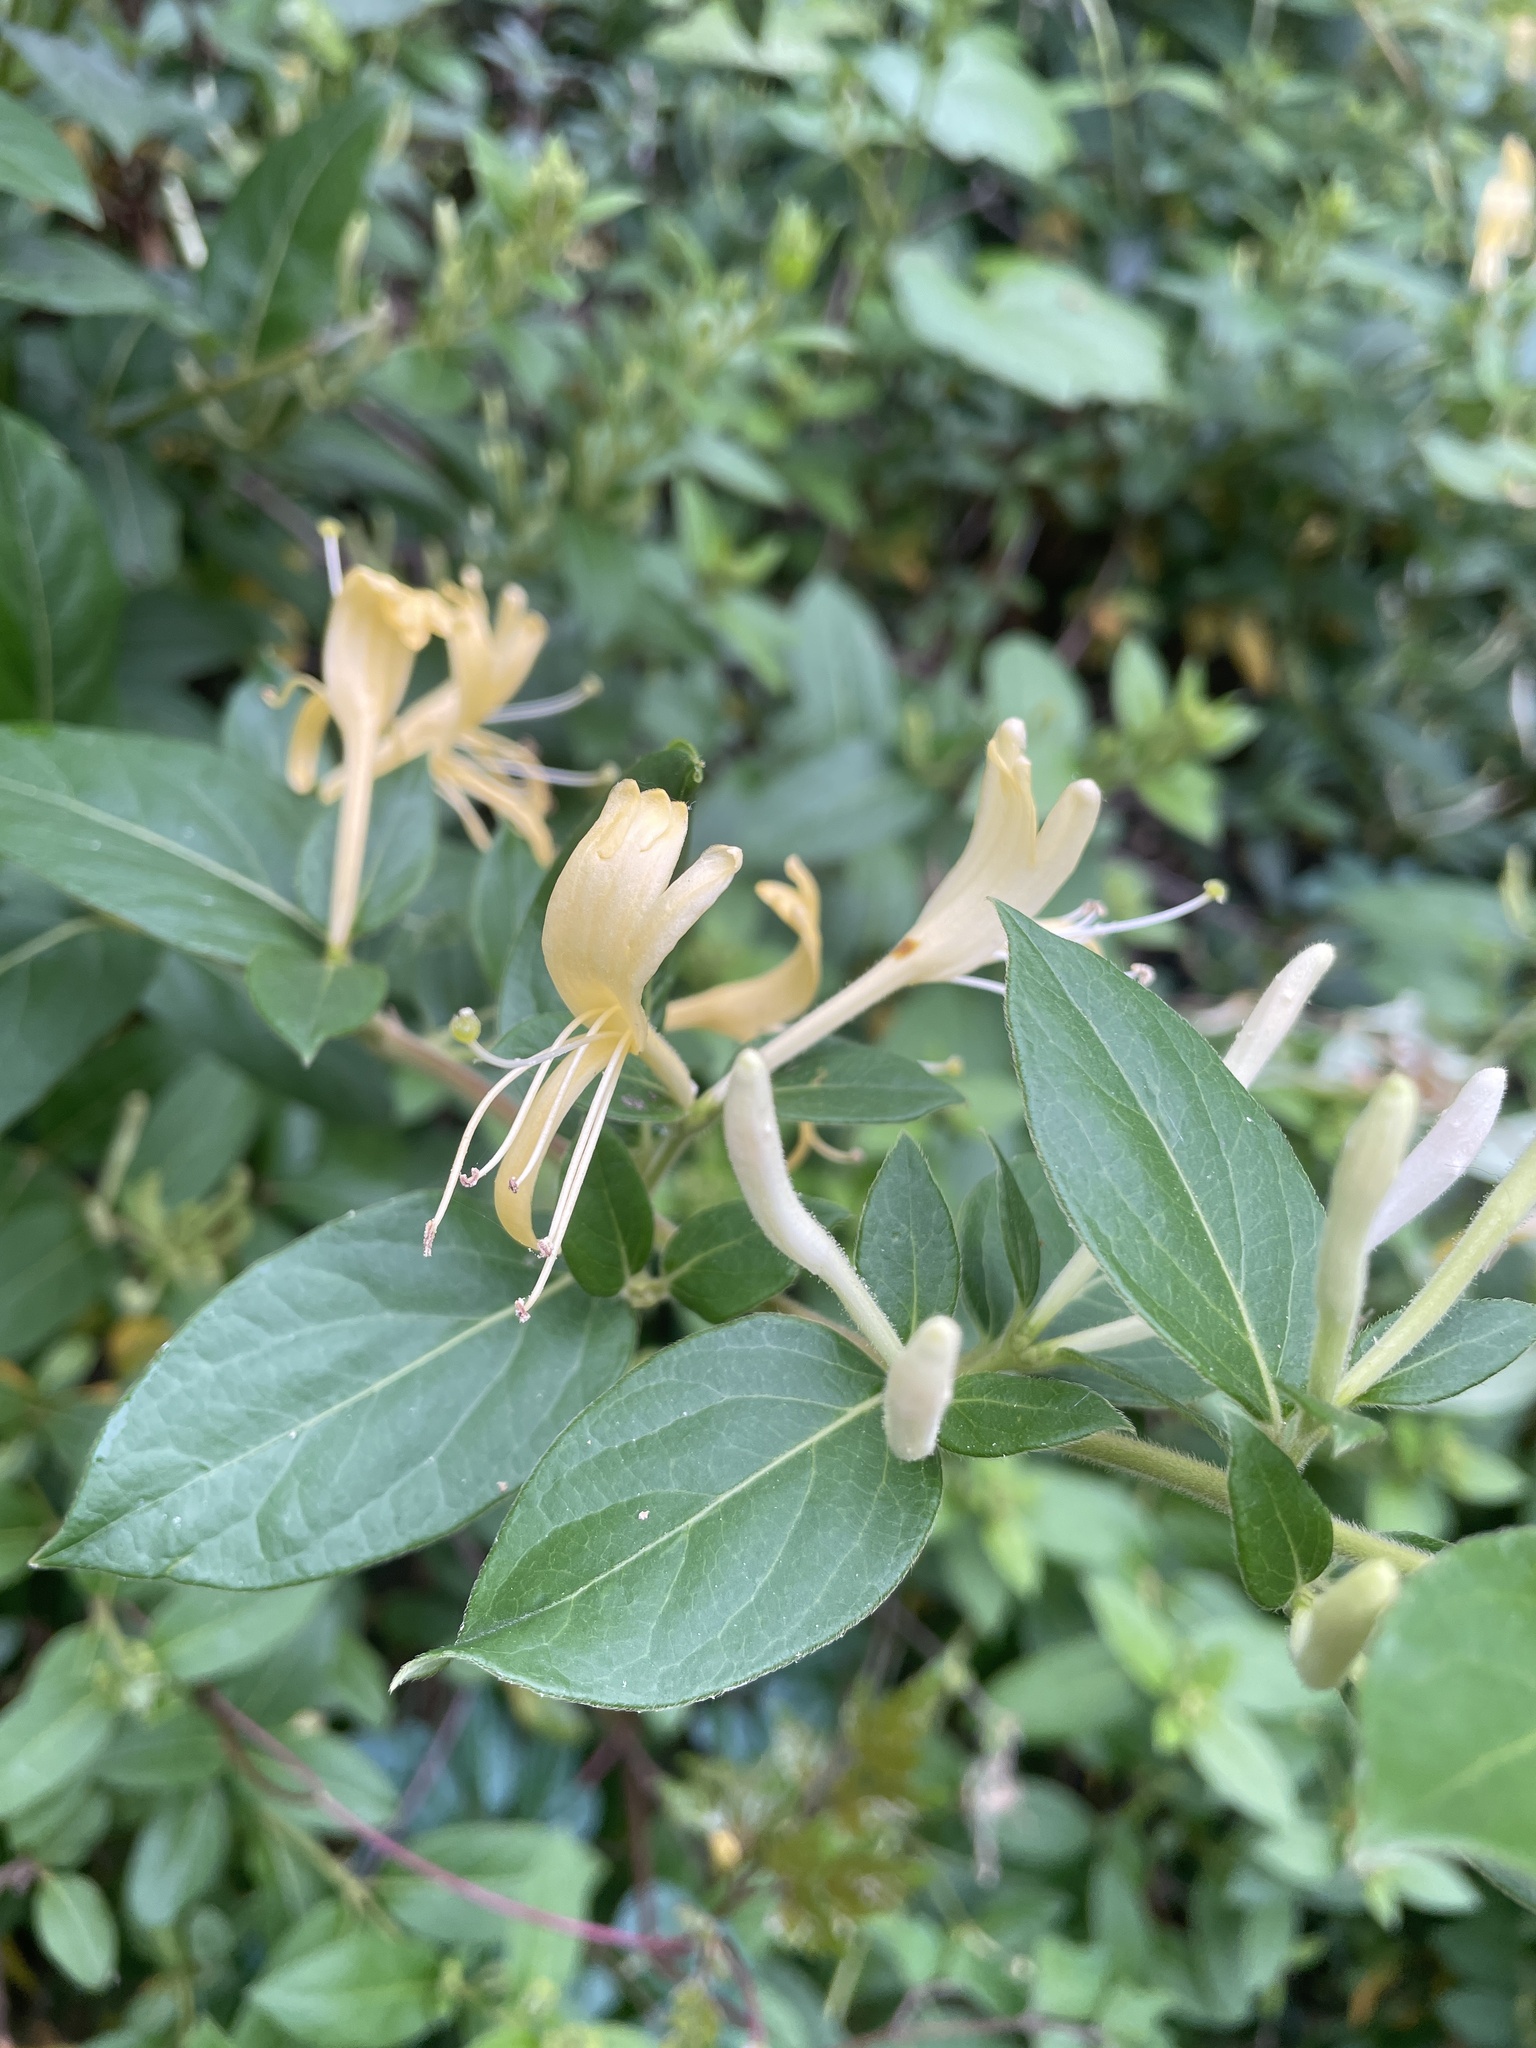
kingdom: Plantae
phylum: Tracheophyta
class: Magnoliopsida
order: Dipsacales
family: Caprifoliaceae
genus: Lonicera
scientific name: Lonicera japonica
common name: Japanese honeysuckle
